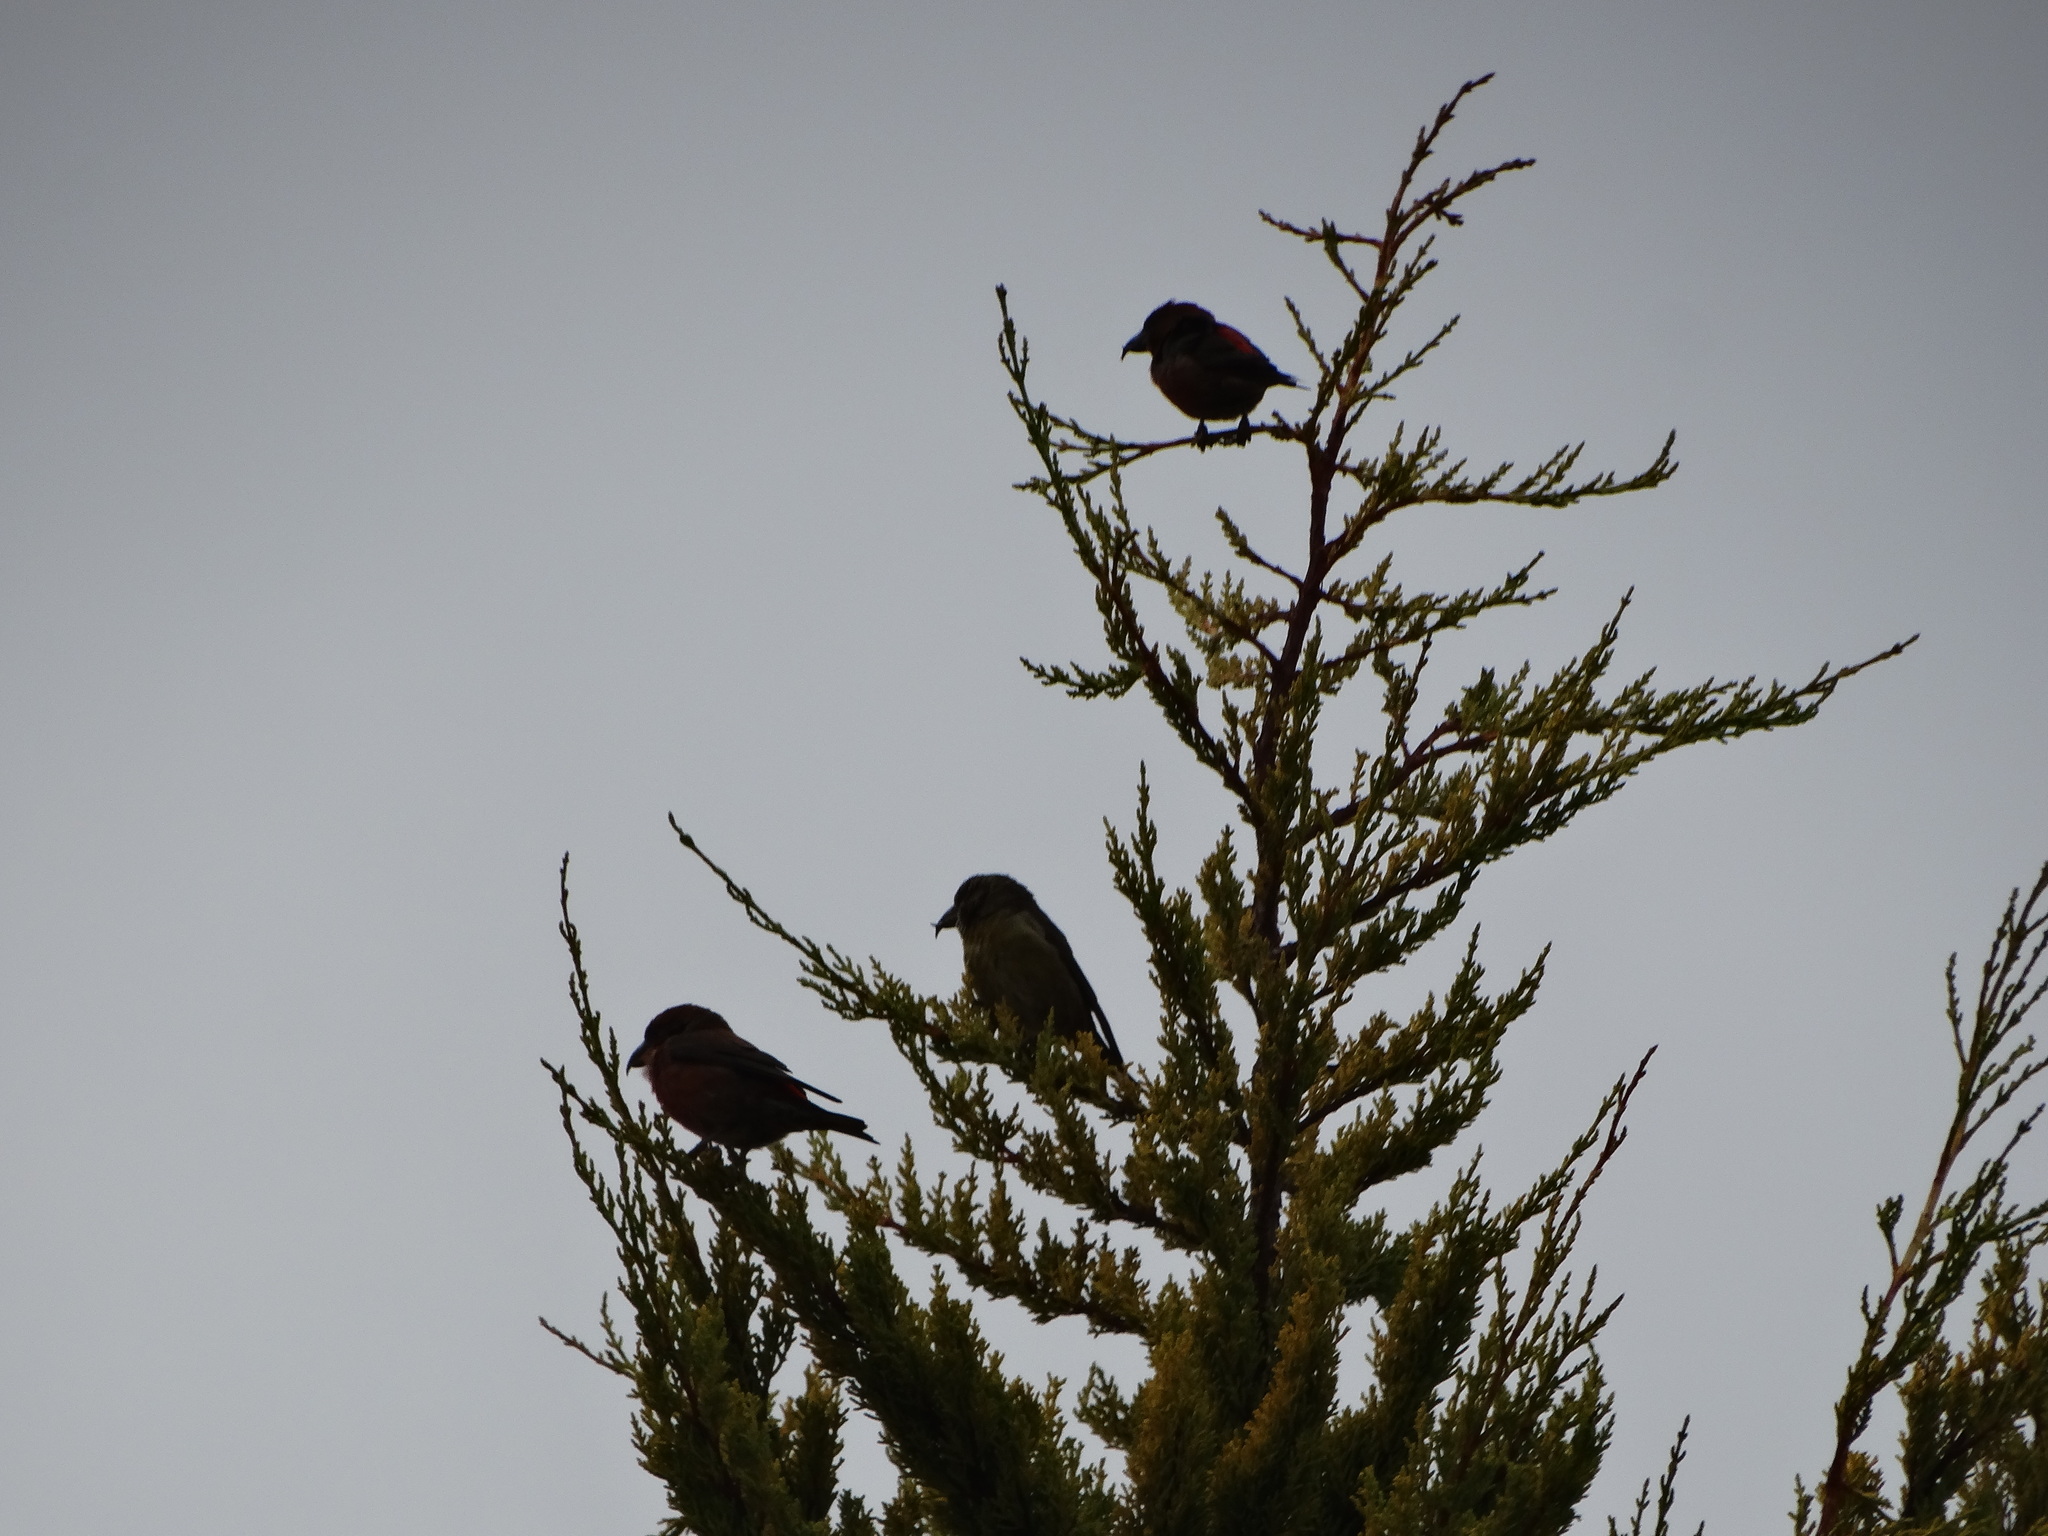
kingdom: Animalia
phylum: Chordata
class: Aves
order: Passeriformes
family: Fringillidae
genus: Loxia
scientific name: Loxia curvirostra
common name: Red crossbill
